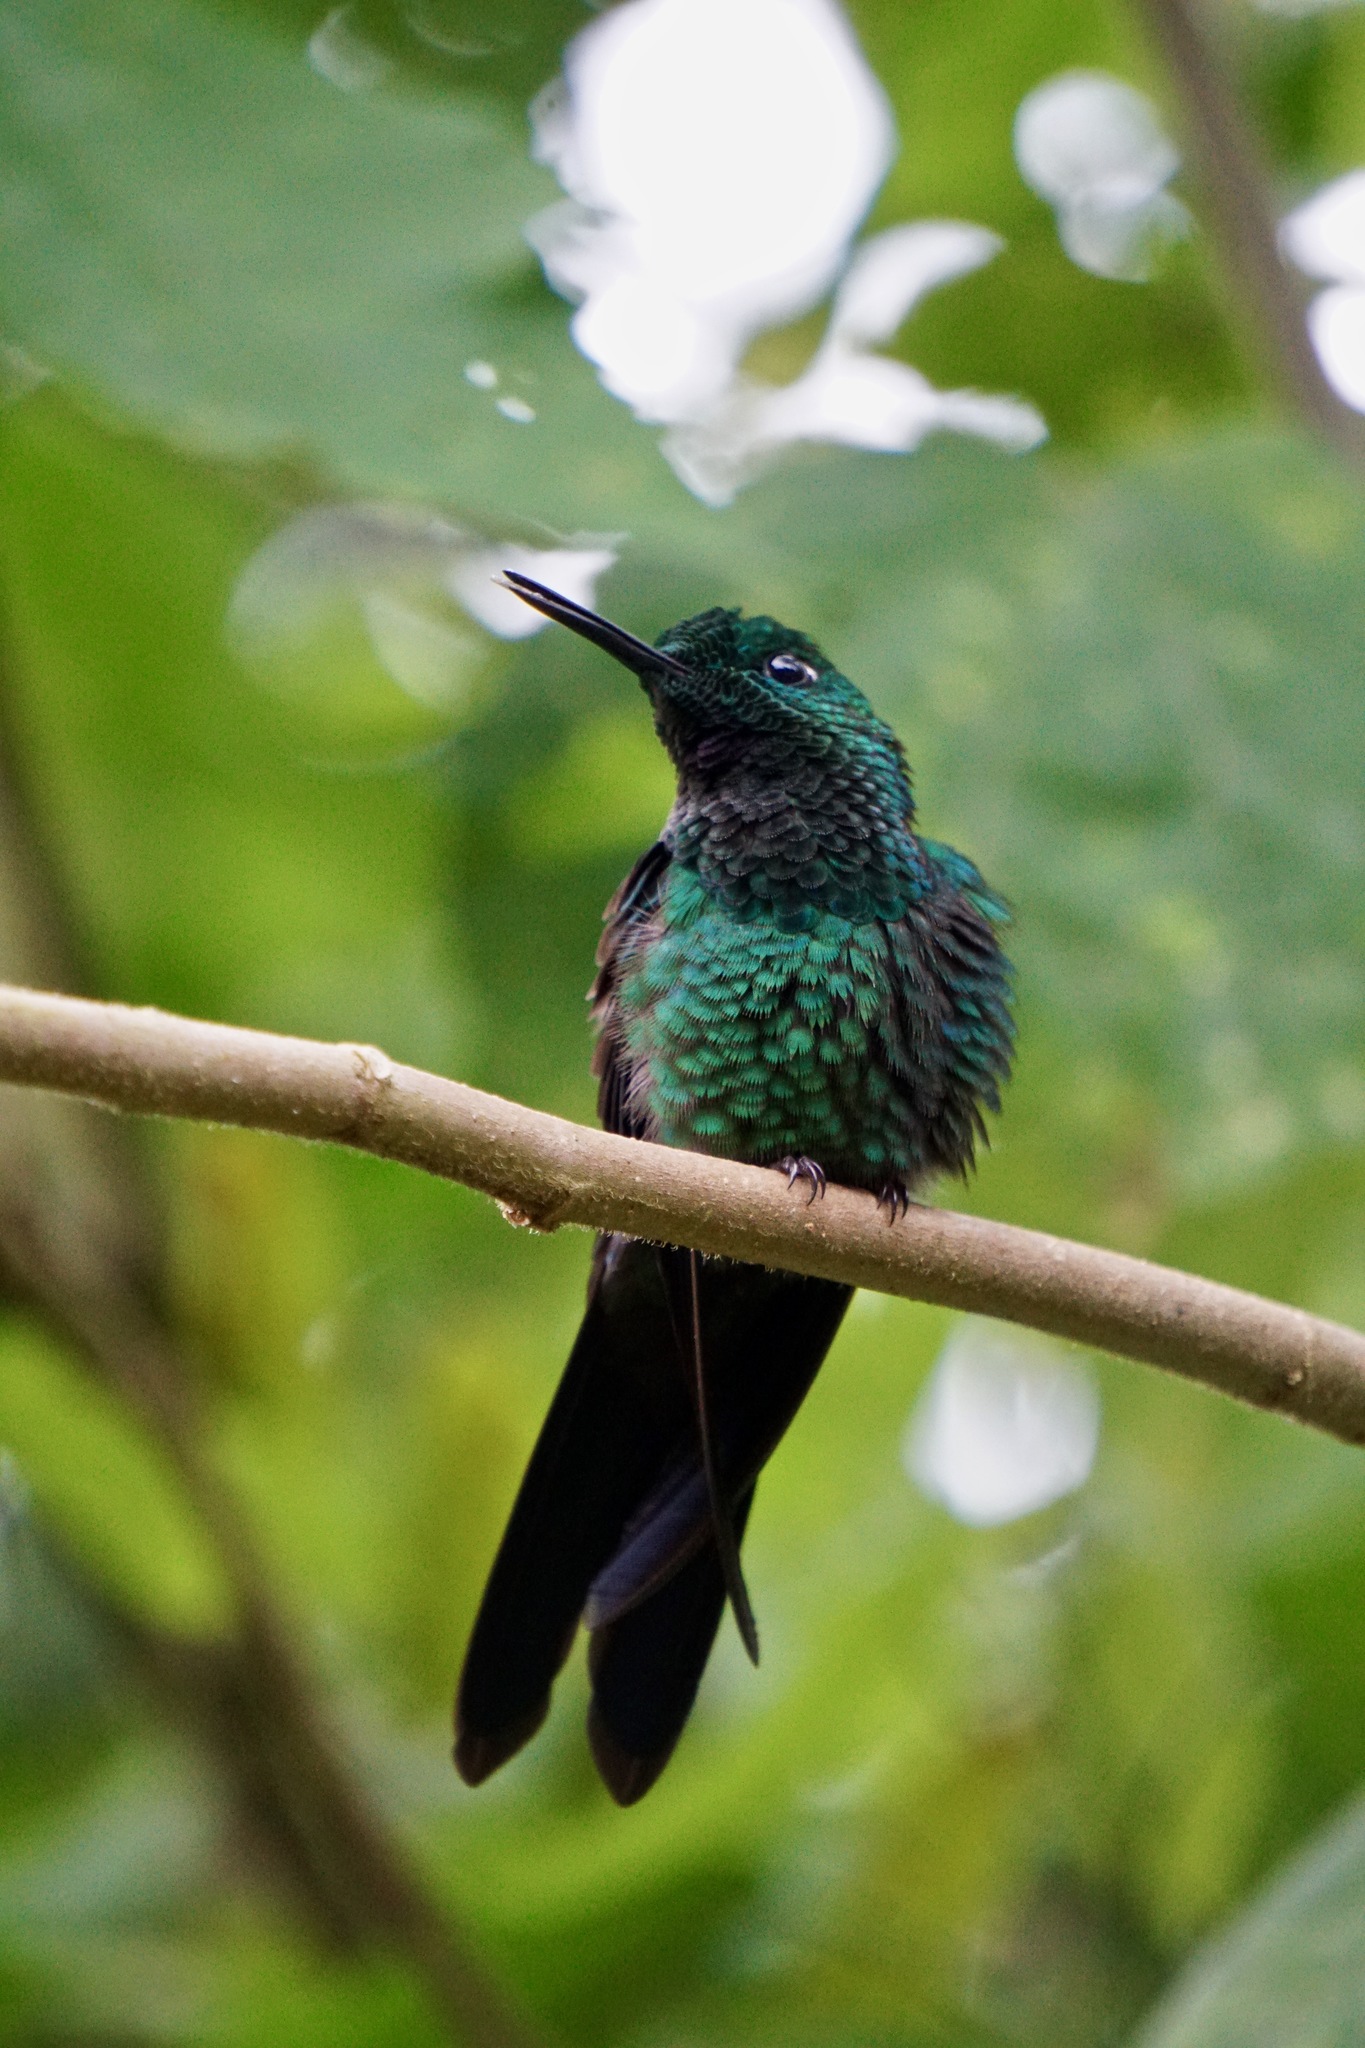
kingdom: Animalia
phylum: Chordata
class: Aves
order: Apodiformes
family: Trochilidae
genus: Heliodoxa
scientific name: Heliodoxa jacula
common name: Green-crowned brilliant
